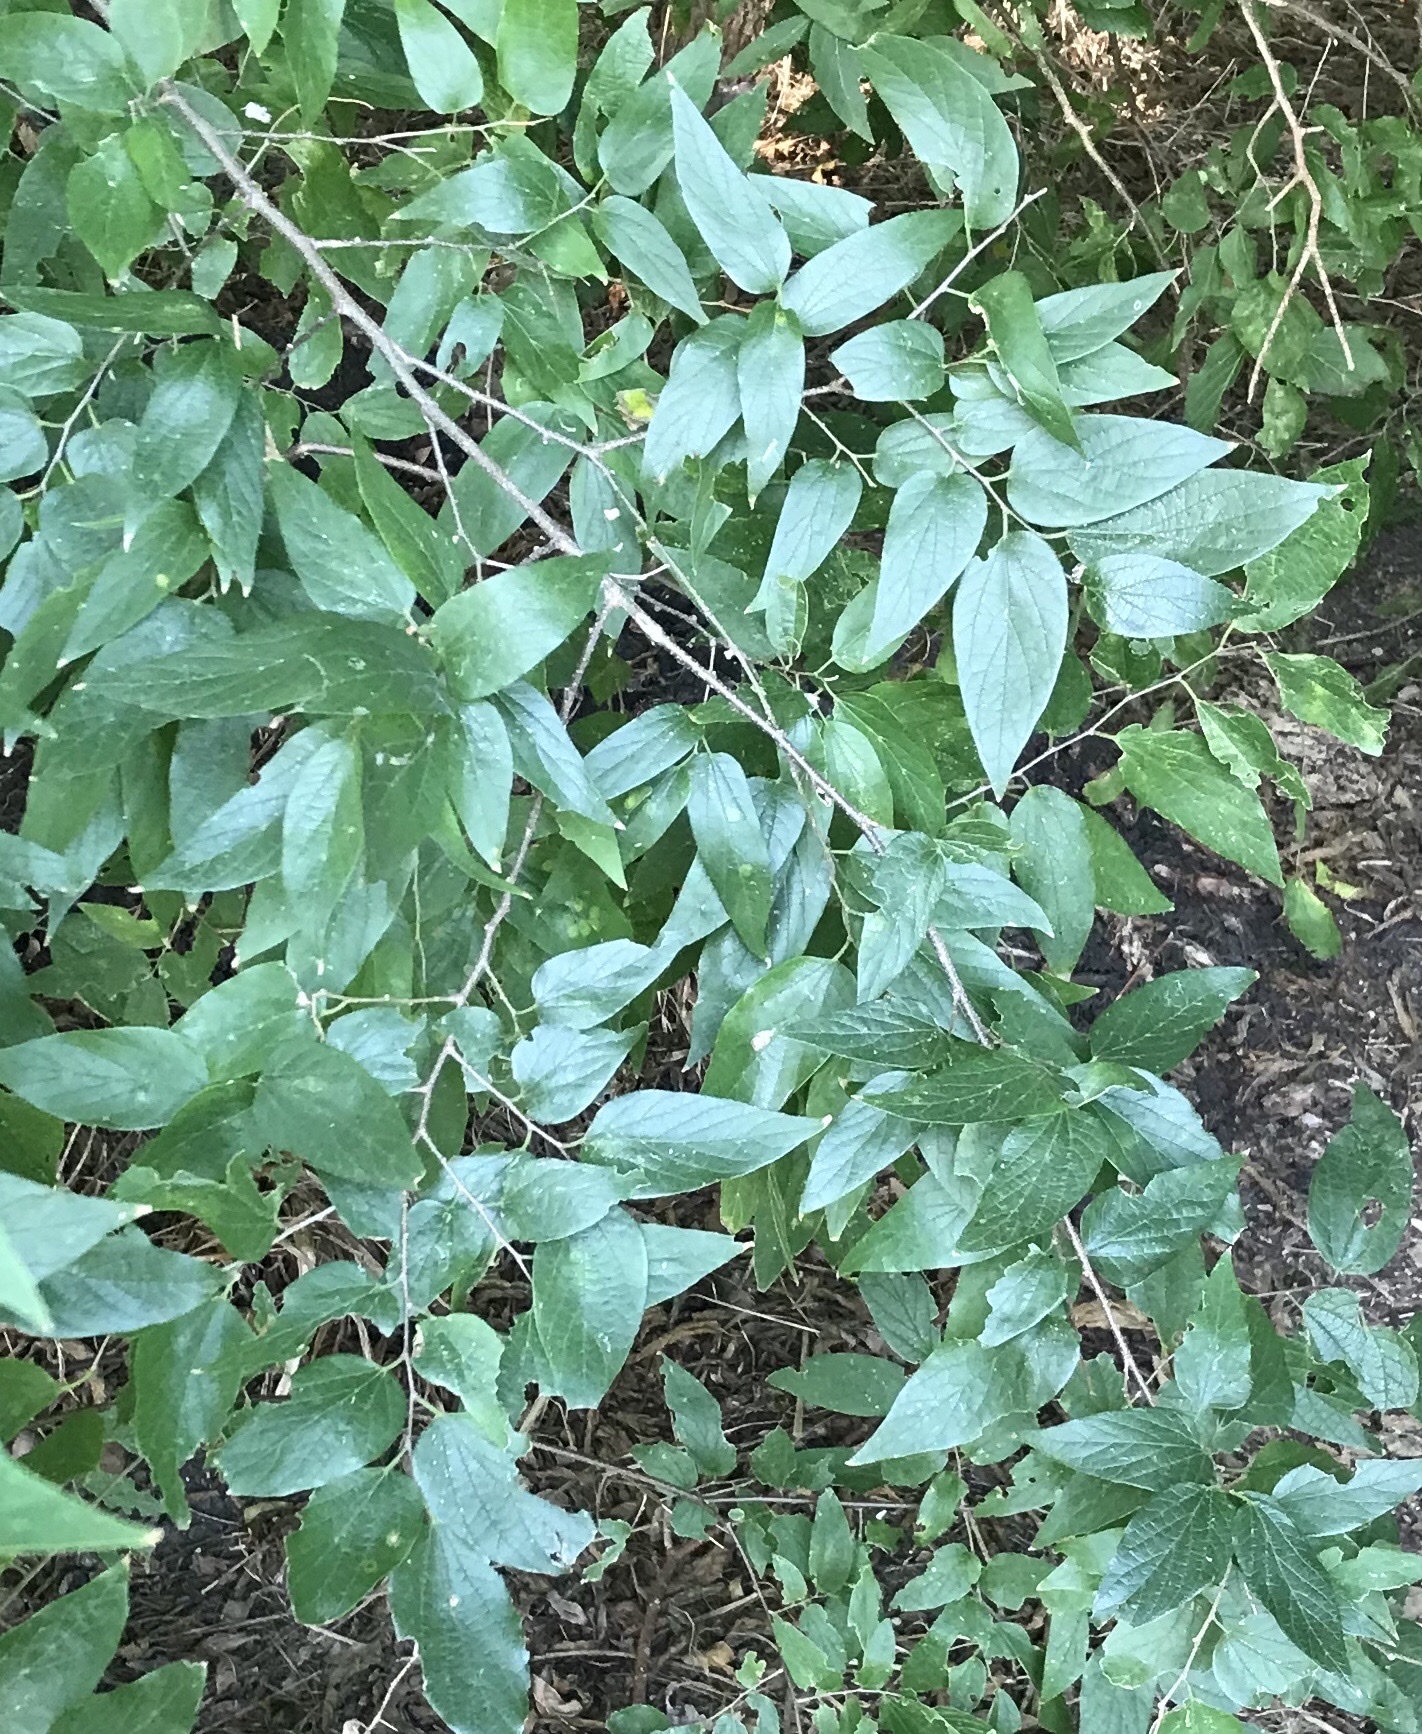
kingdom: Plantae
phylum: Tracheophyta
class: Magnoliopsida
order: Rosales
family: Cannabaceae
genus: Celtis
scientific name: Celtis laevigata
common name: Sugarberry
